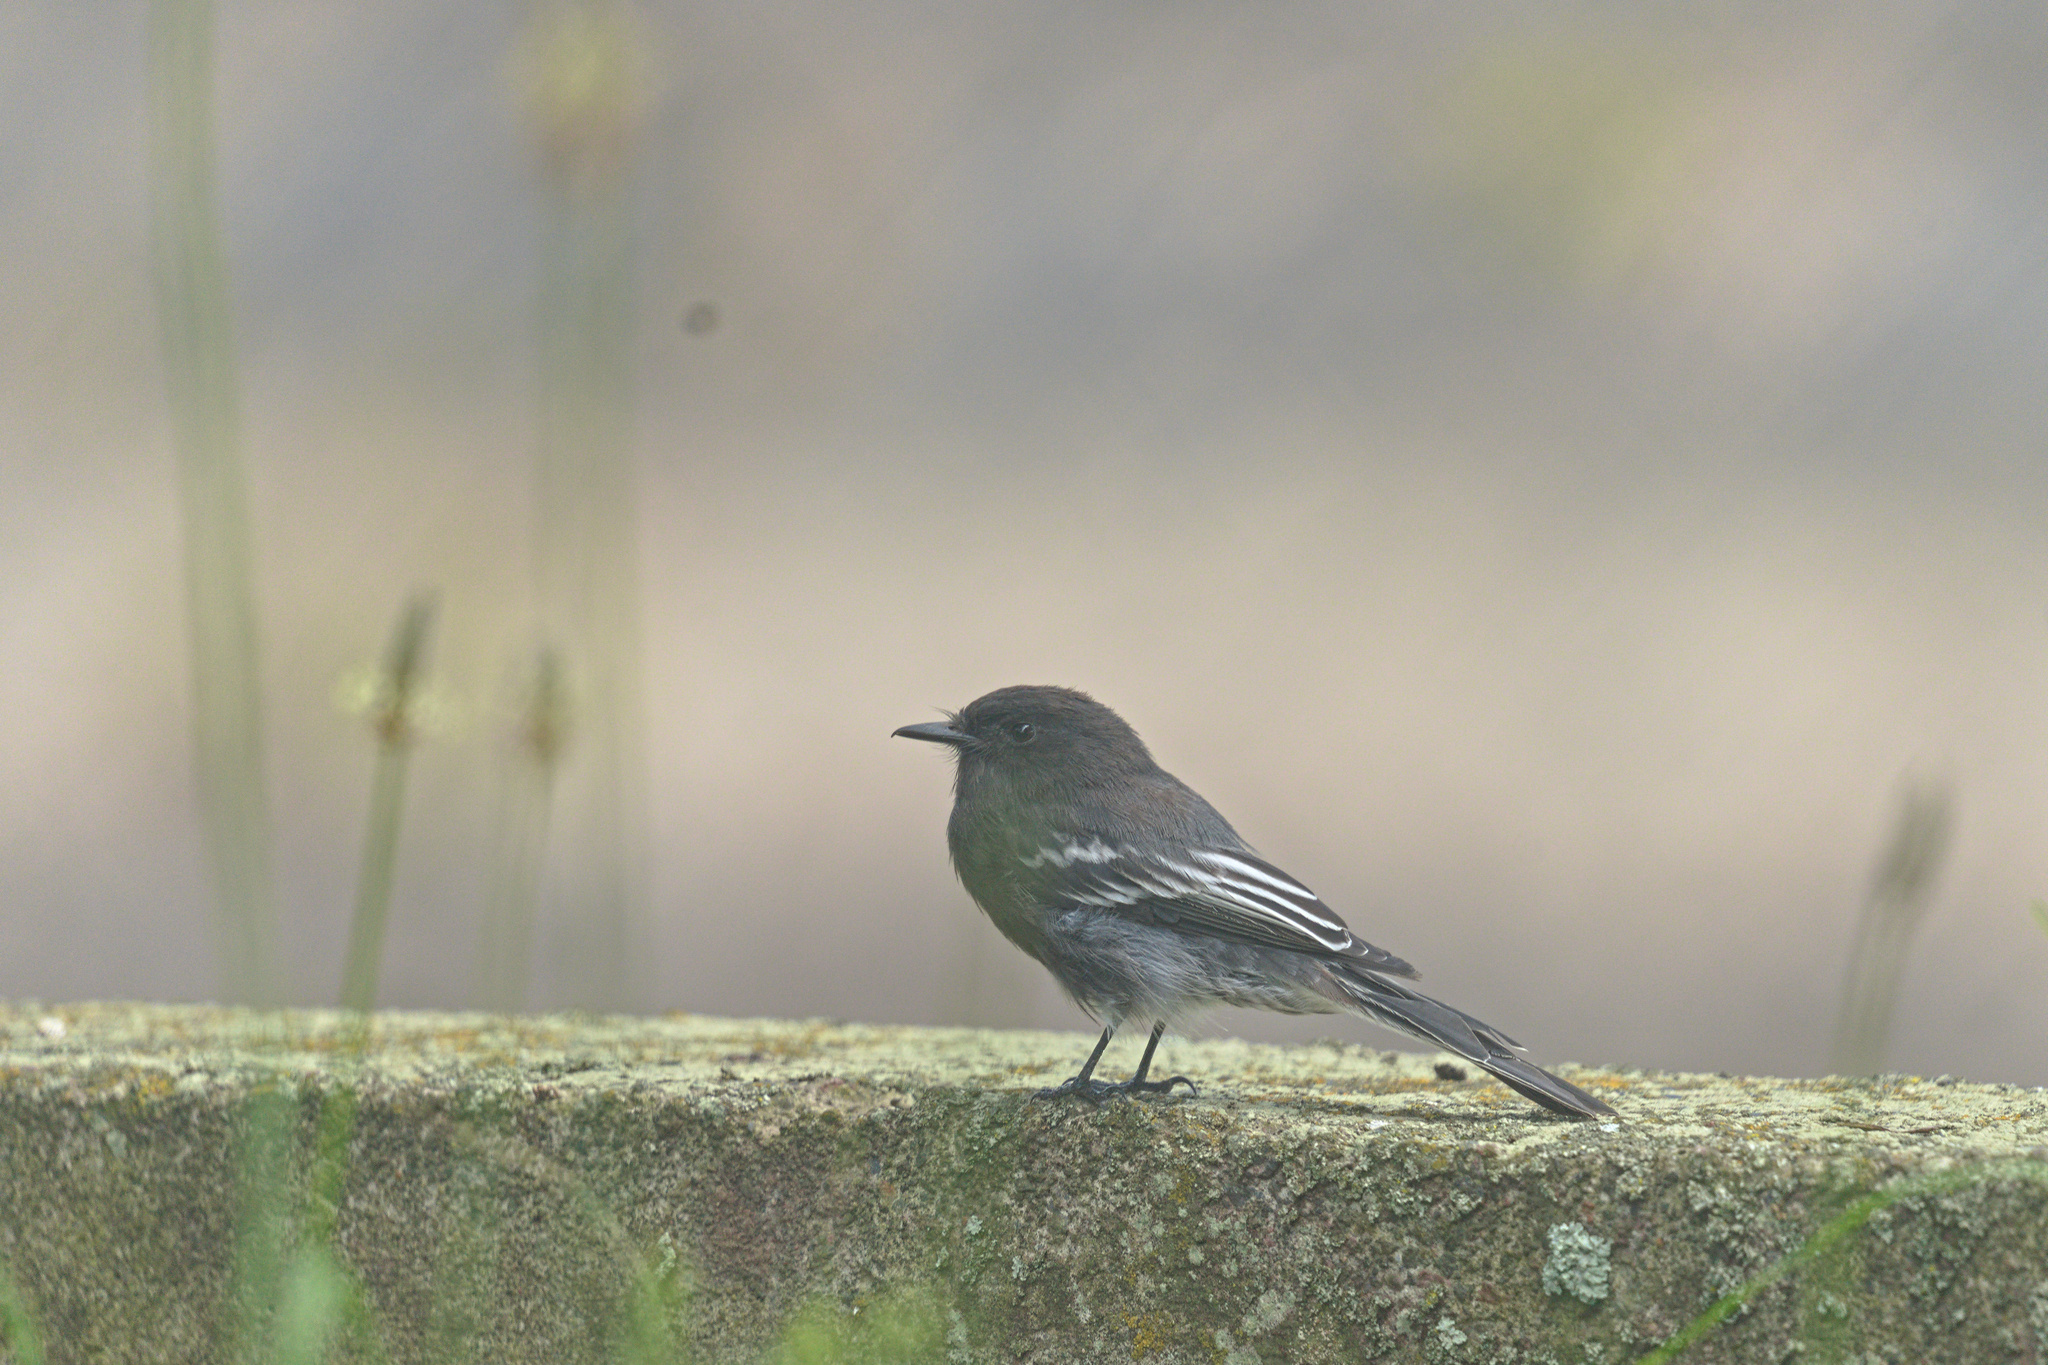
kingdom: Animalia
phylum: Chordata
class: Aves
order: Passeriformes
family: Tyrannidae
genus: Sayornis
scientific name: Sayornis nigricans
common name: Black phoebe
